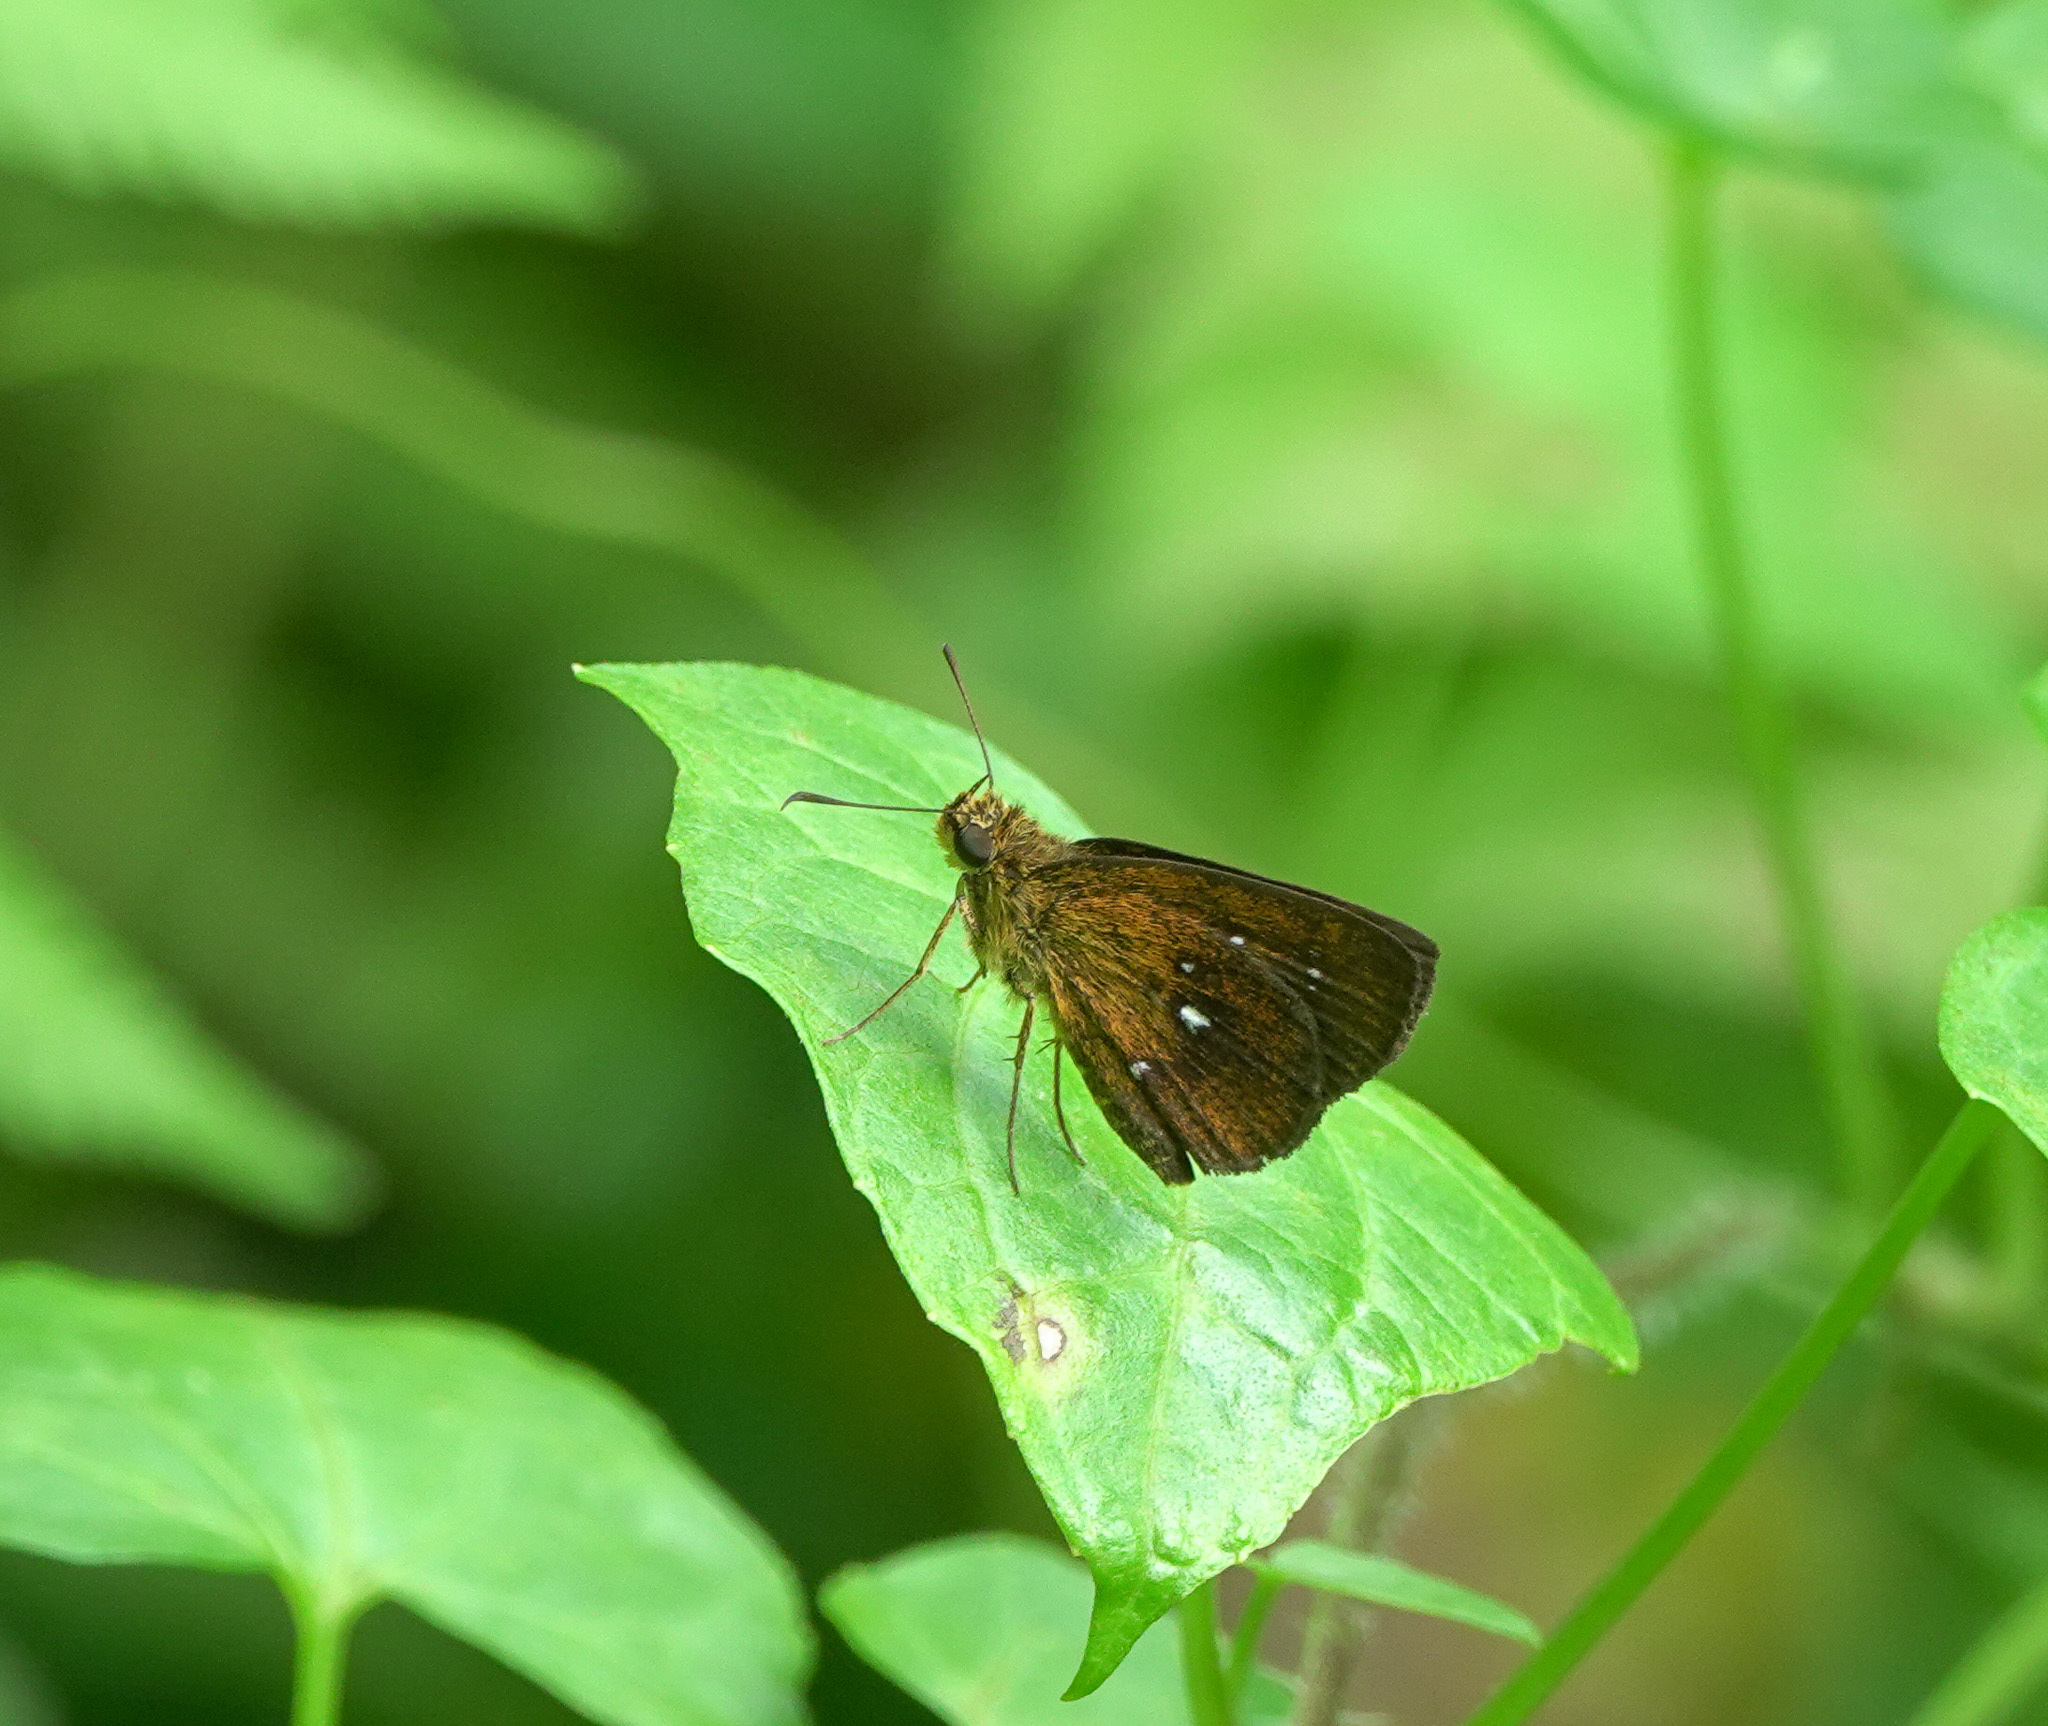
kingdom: Animalia
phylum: Arthropoda
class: Insecta
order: Lepidoptera
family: Hesperiidae
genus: Iambrix
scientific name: Iambrix salsala
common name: Chestnut bob
